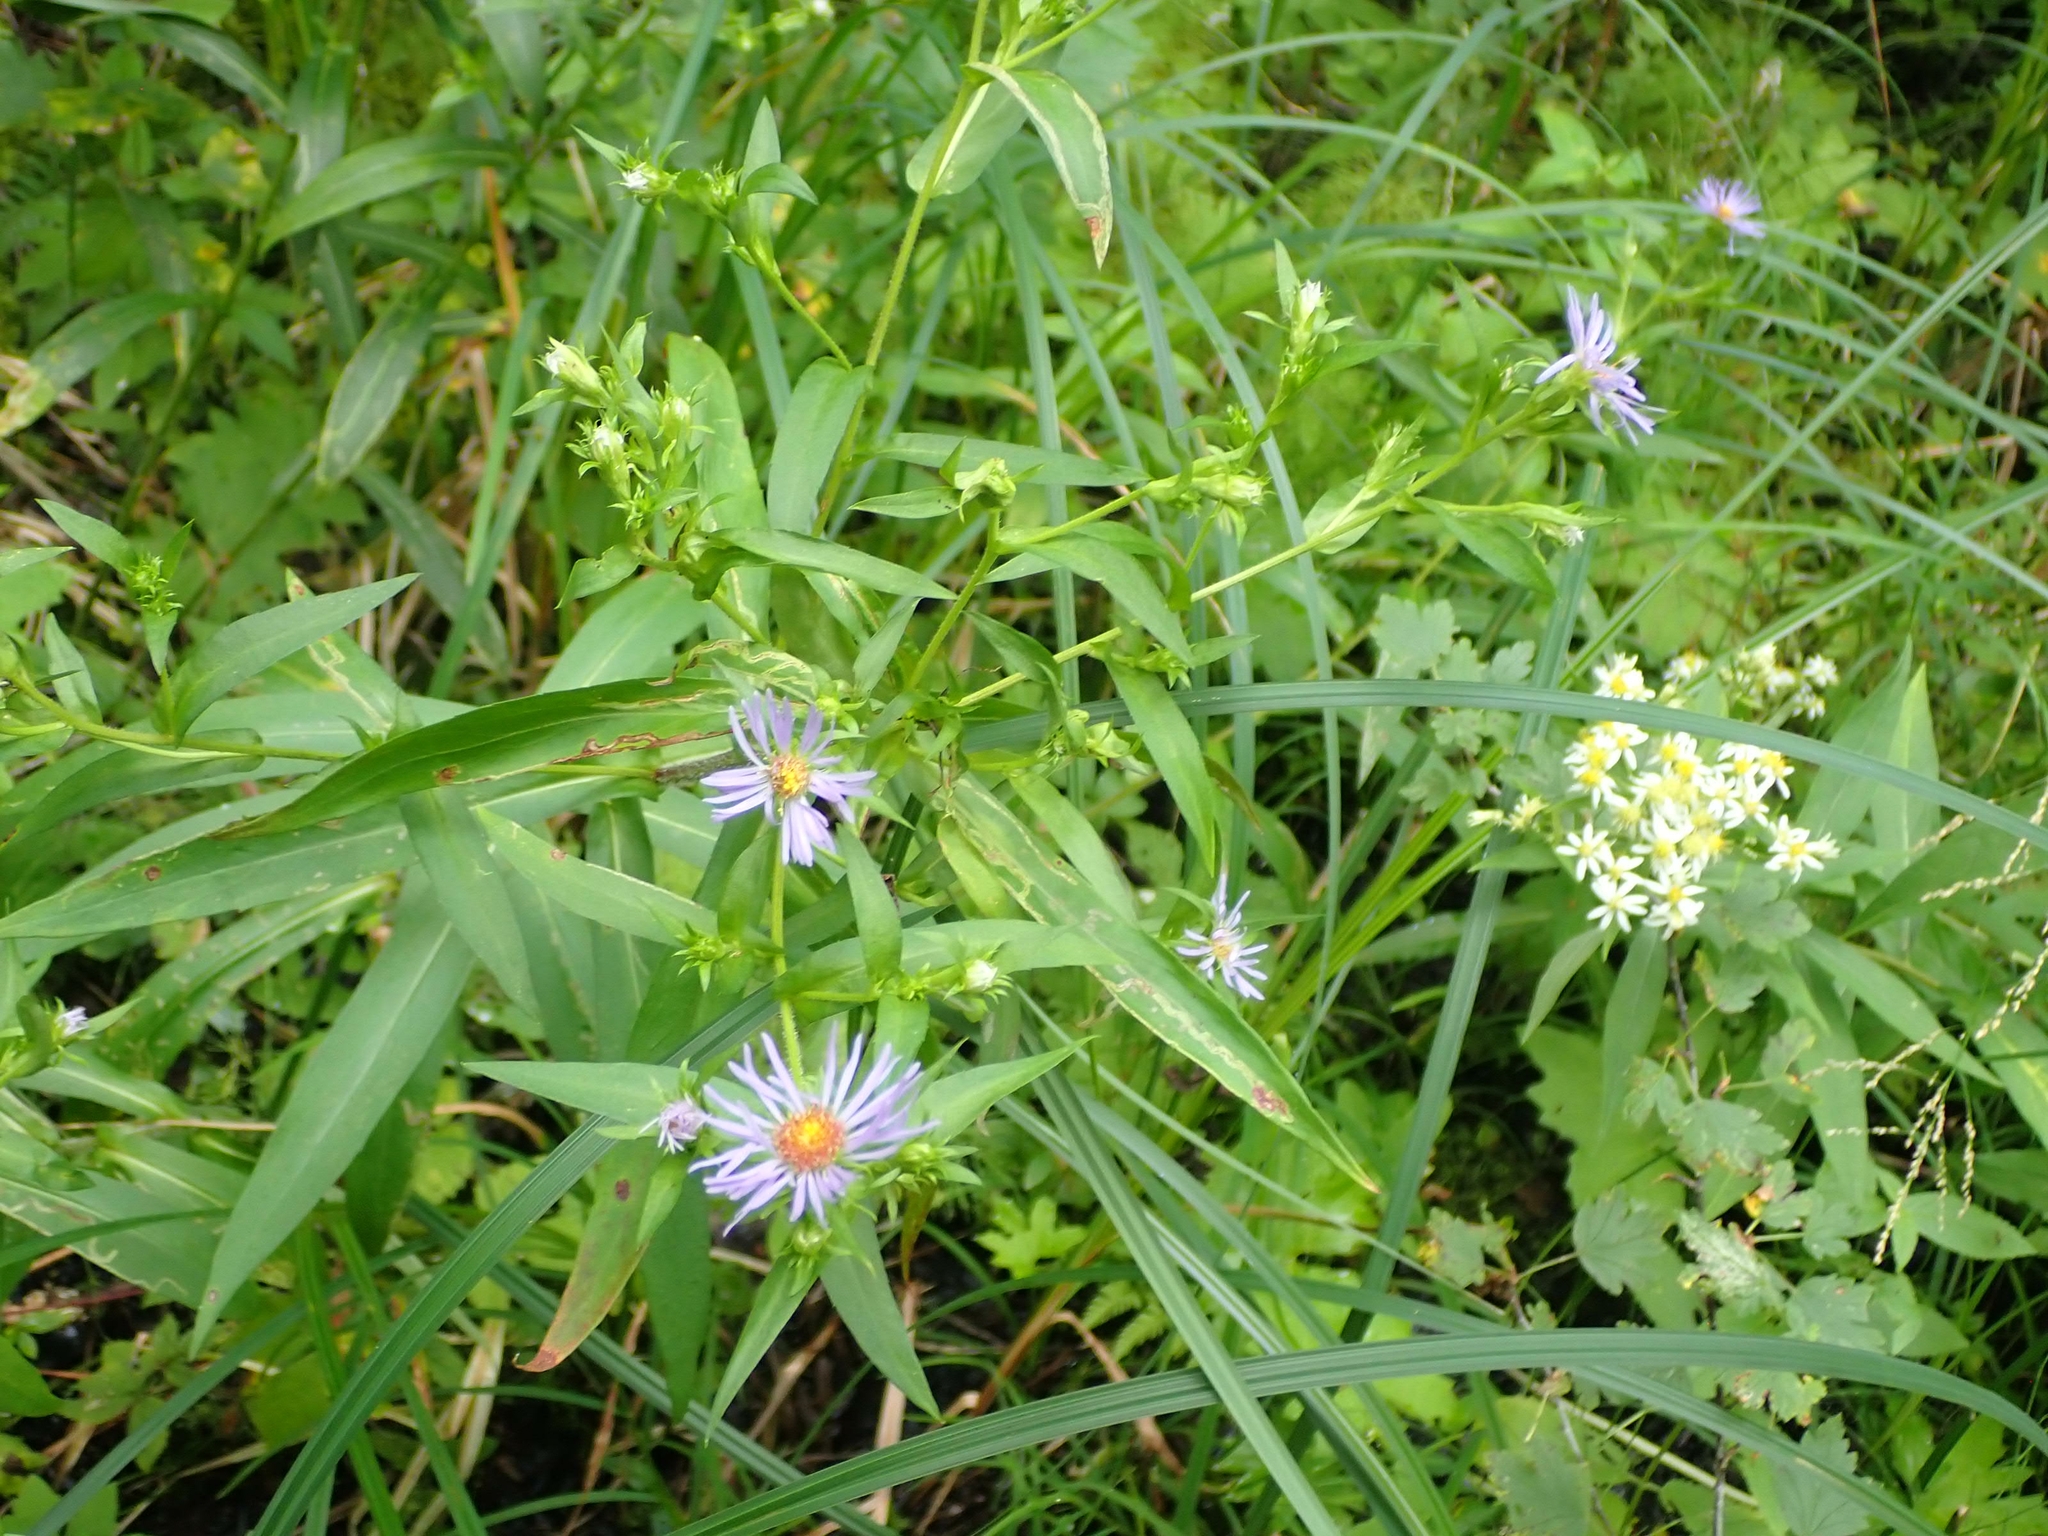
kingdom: Plantae
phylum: Tracheophyta
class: Magnoliopsida
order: Asterales
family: Asteraceae
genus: Symphyotrichum
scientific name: Symphyotrichum puniceum
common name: Bog aster
